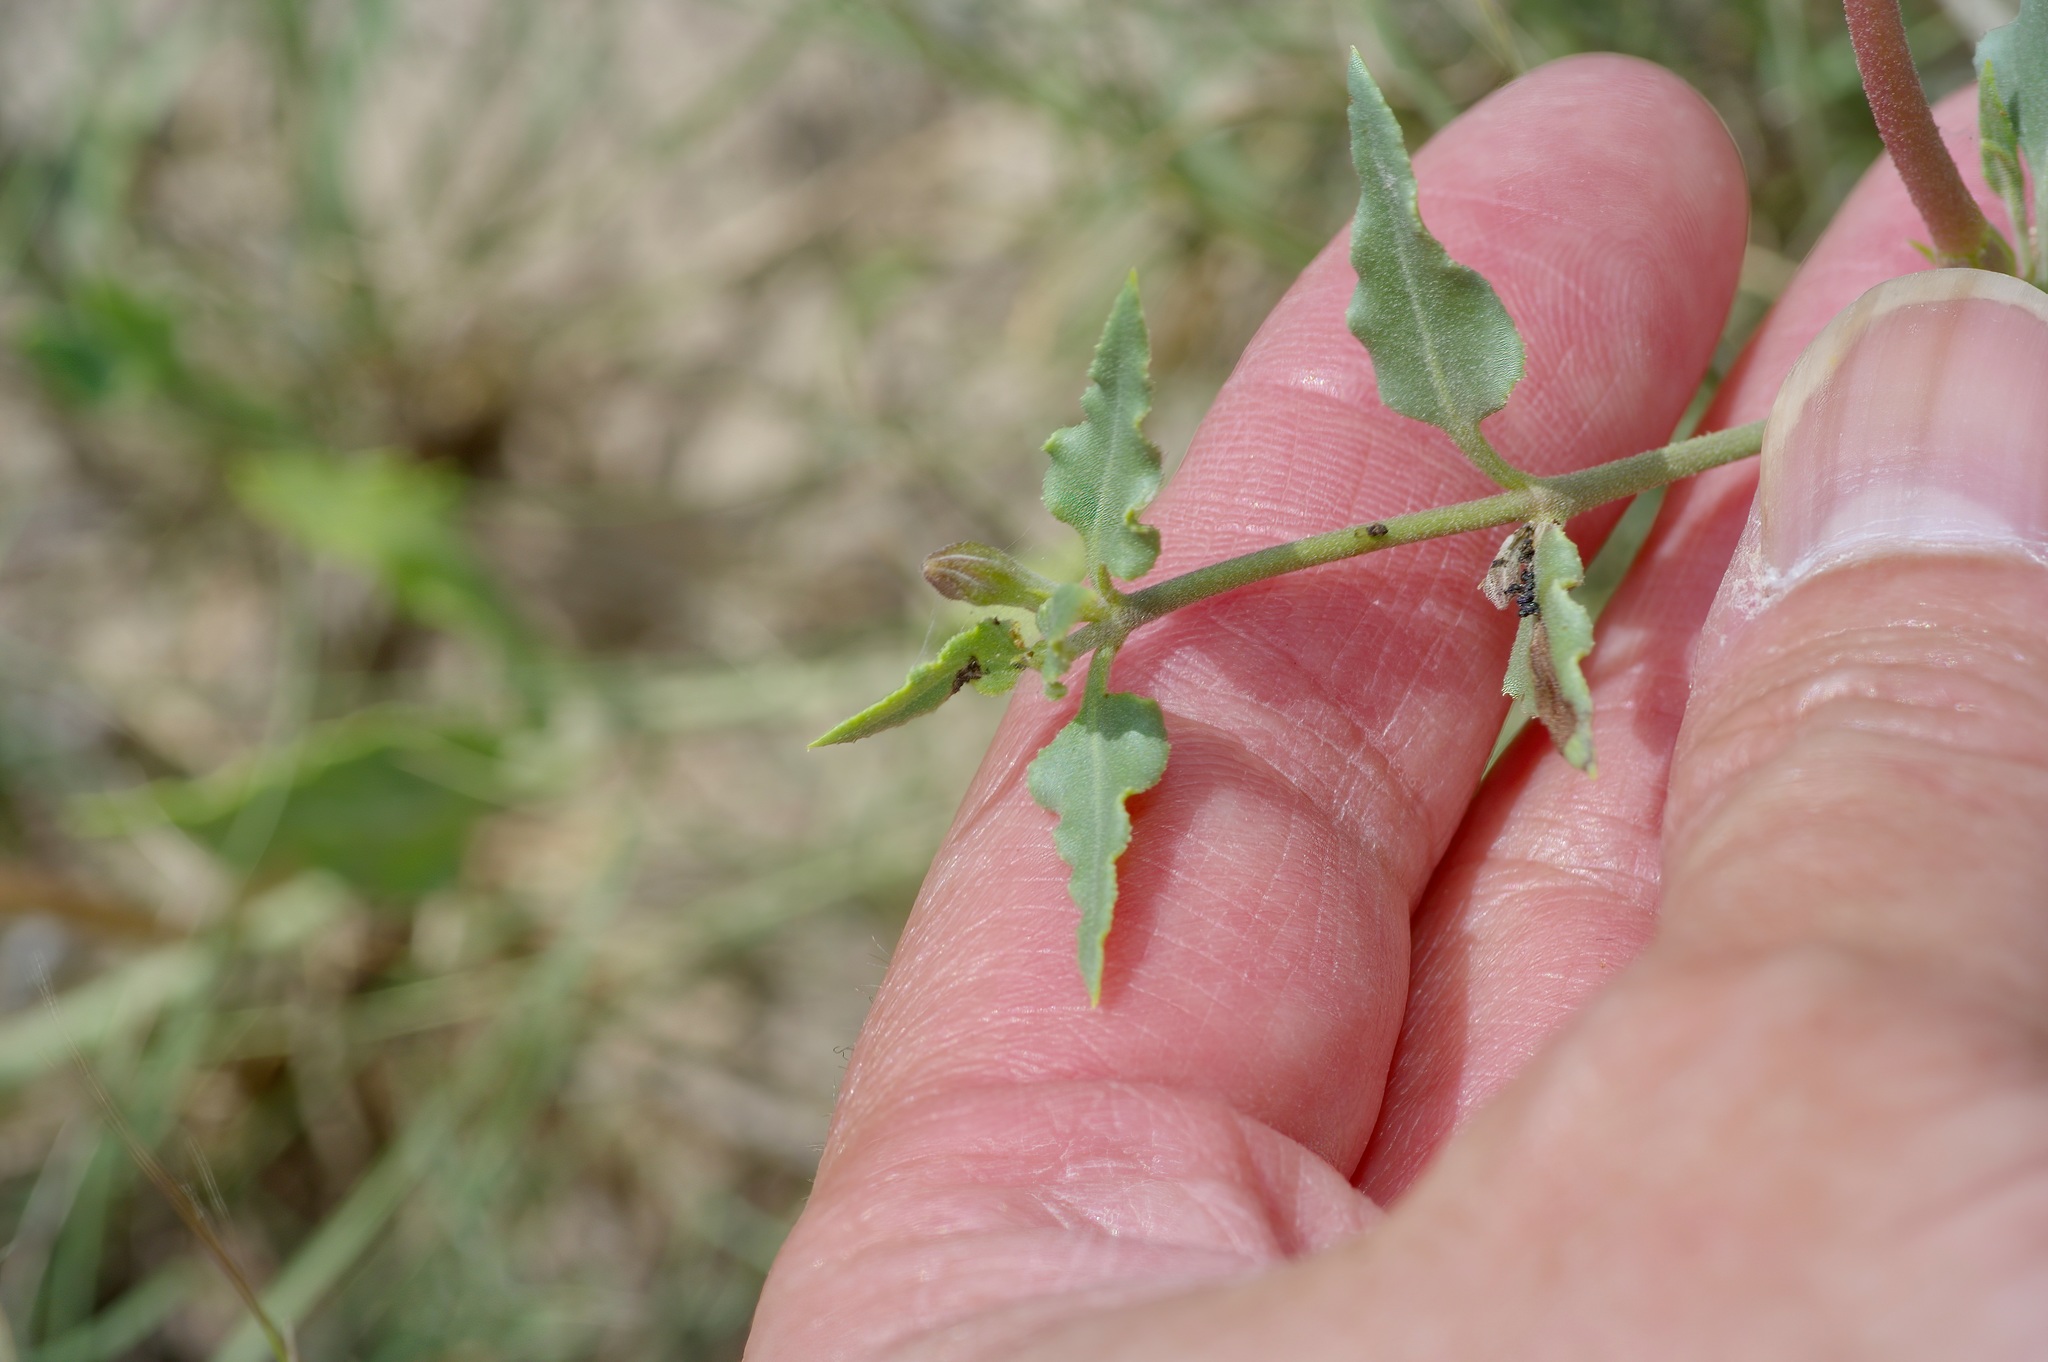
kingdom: Plantae
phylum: Tracheophyta
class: Magnoliopsida
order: Caryophyllales
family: Nyctaginaceae
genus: Acleisanthes
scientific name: Acleisanthes longiflora
